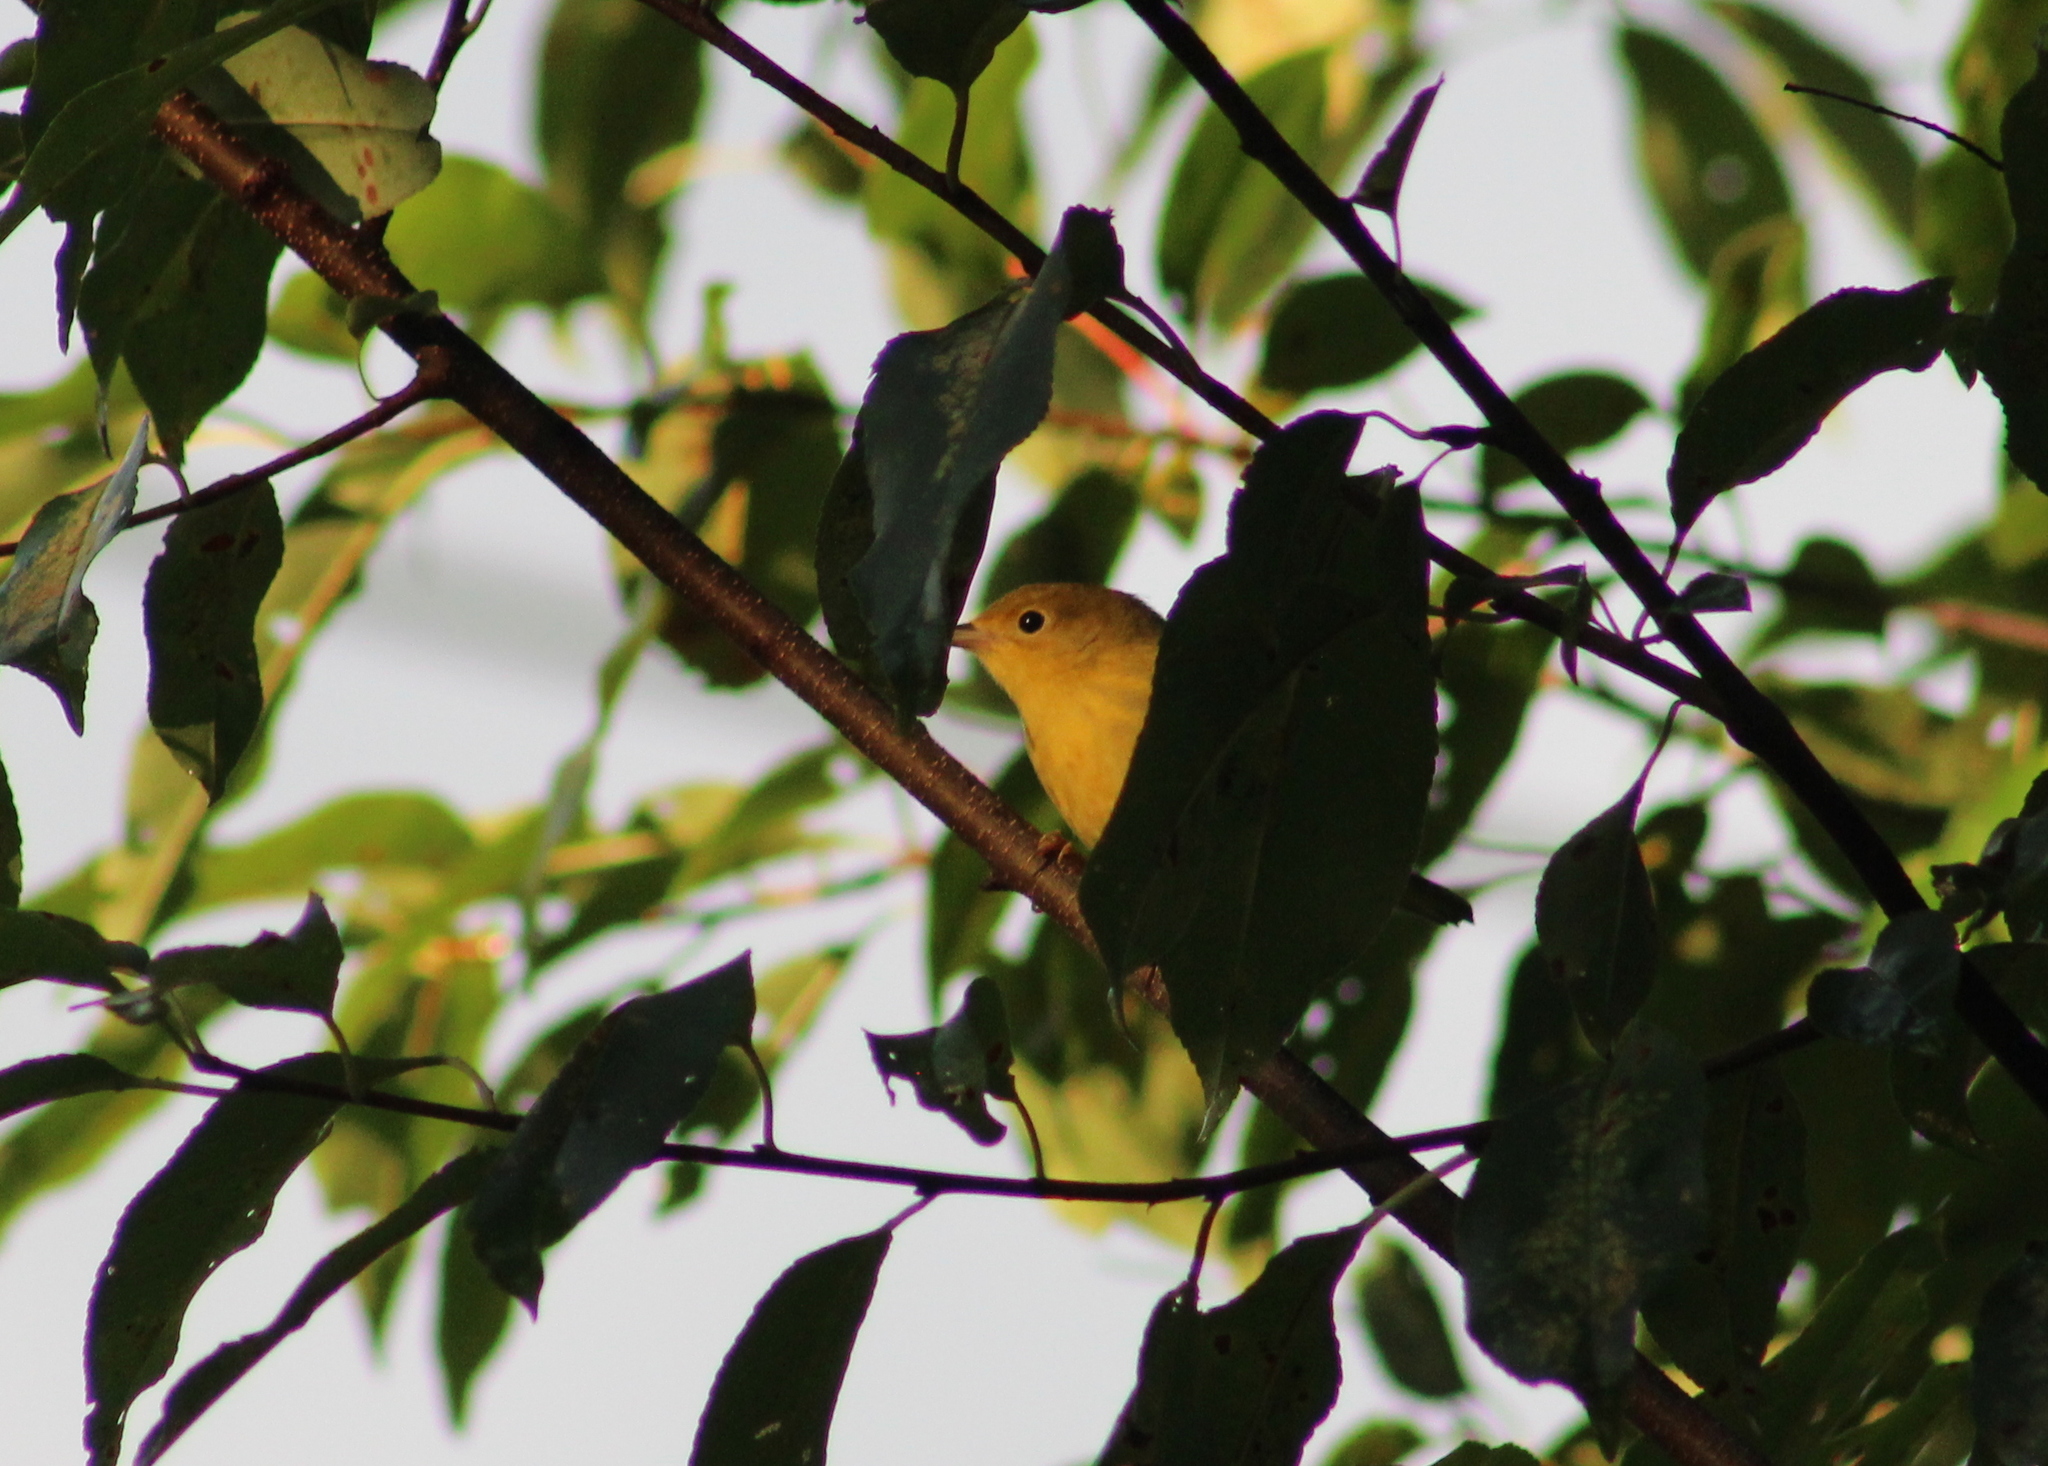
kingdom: Animalia
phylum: Chordata
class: Aves
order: Passeriformes
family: Parulidae
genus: Setophaga
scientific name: Setophaga petechia
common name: Yellow warbler
